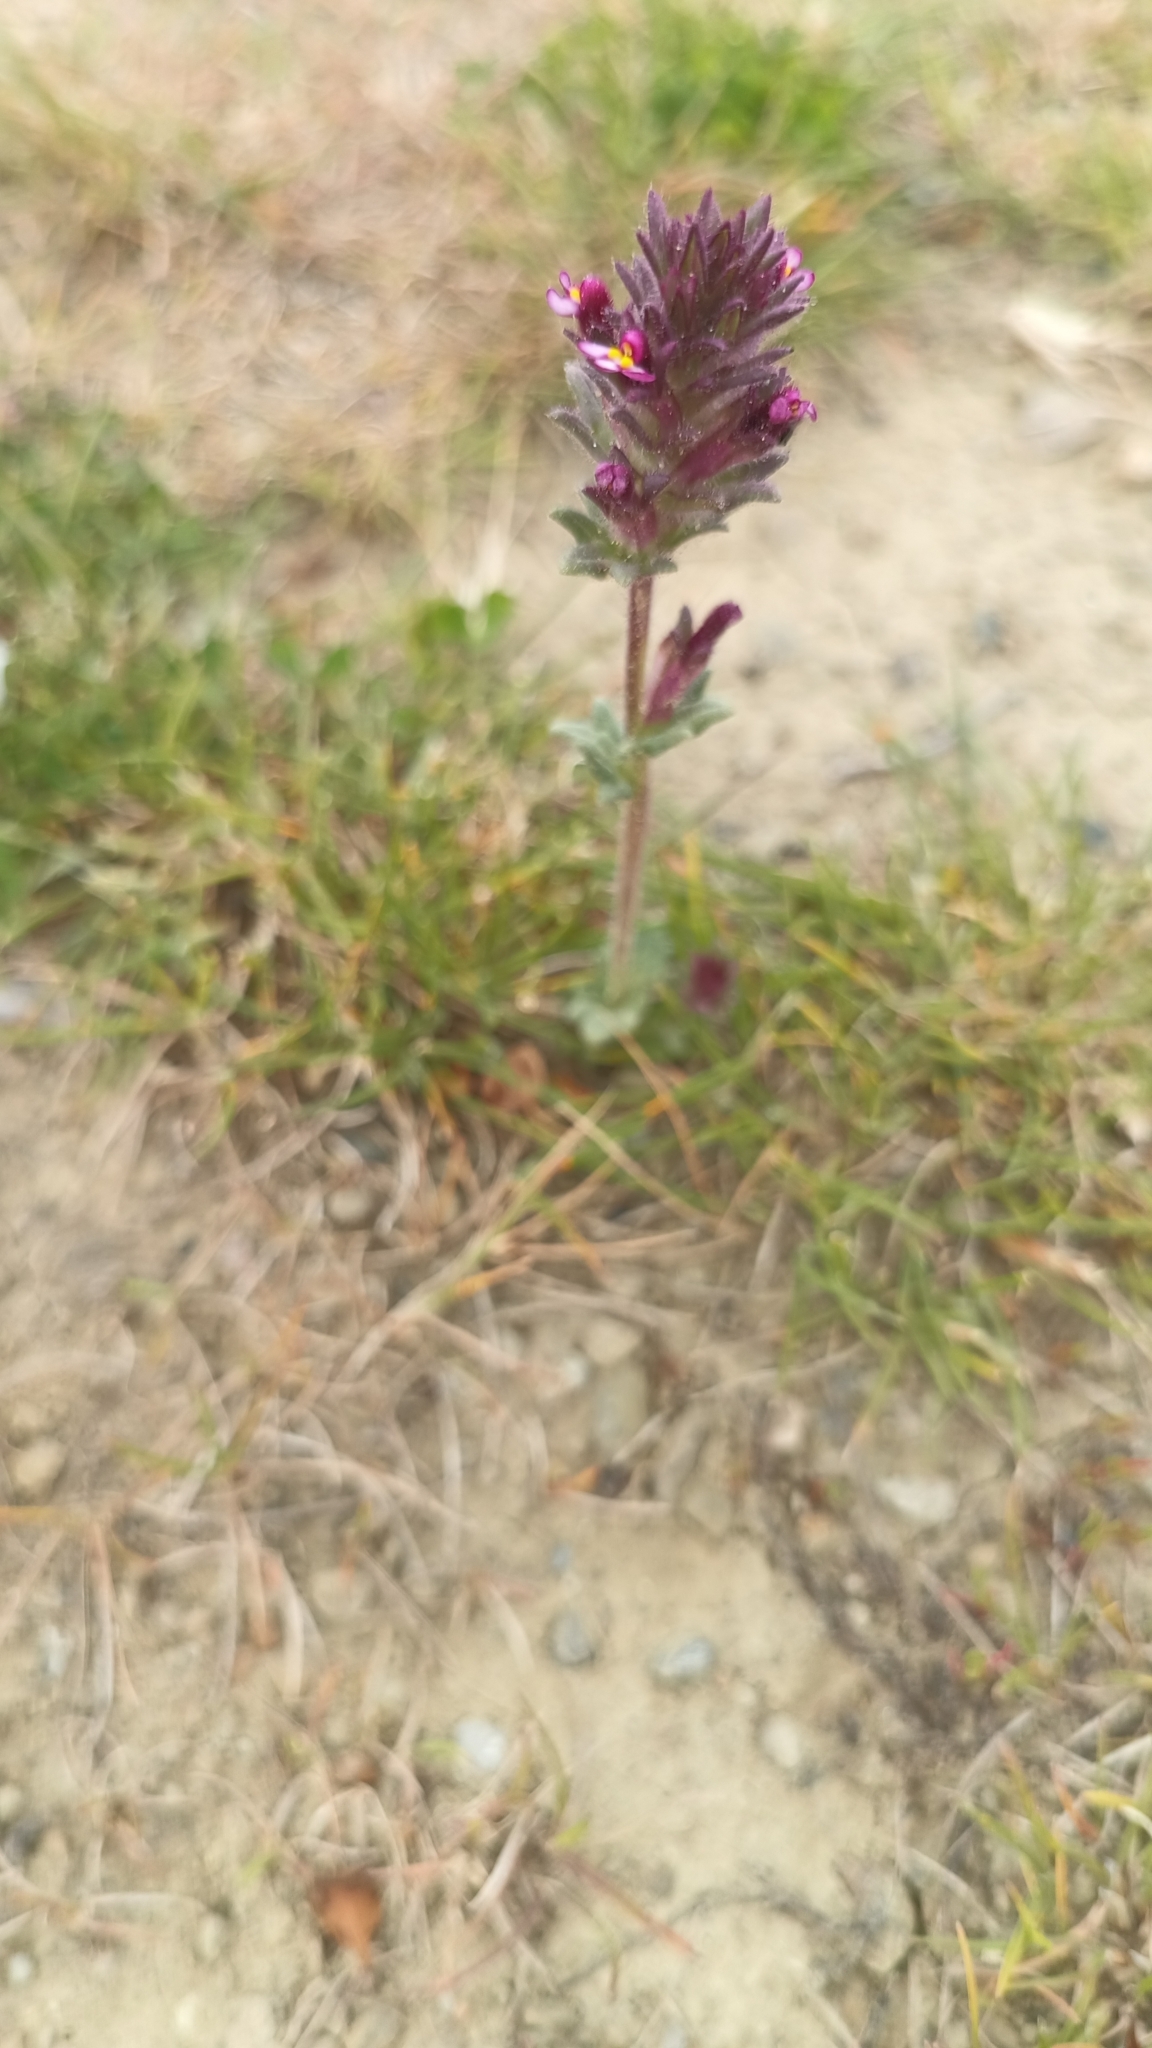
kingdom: Plantae
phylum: Tracheophyta
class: Magnoliopsida
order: Lamiales
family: Orobanchaceae
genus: Parentucellia
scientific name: Parentucellia latifolia
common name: Broadleaf glandweed
